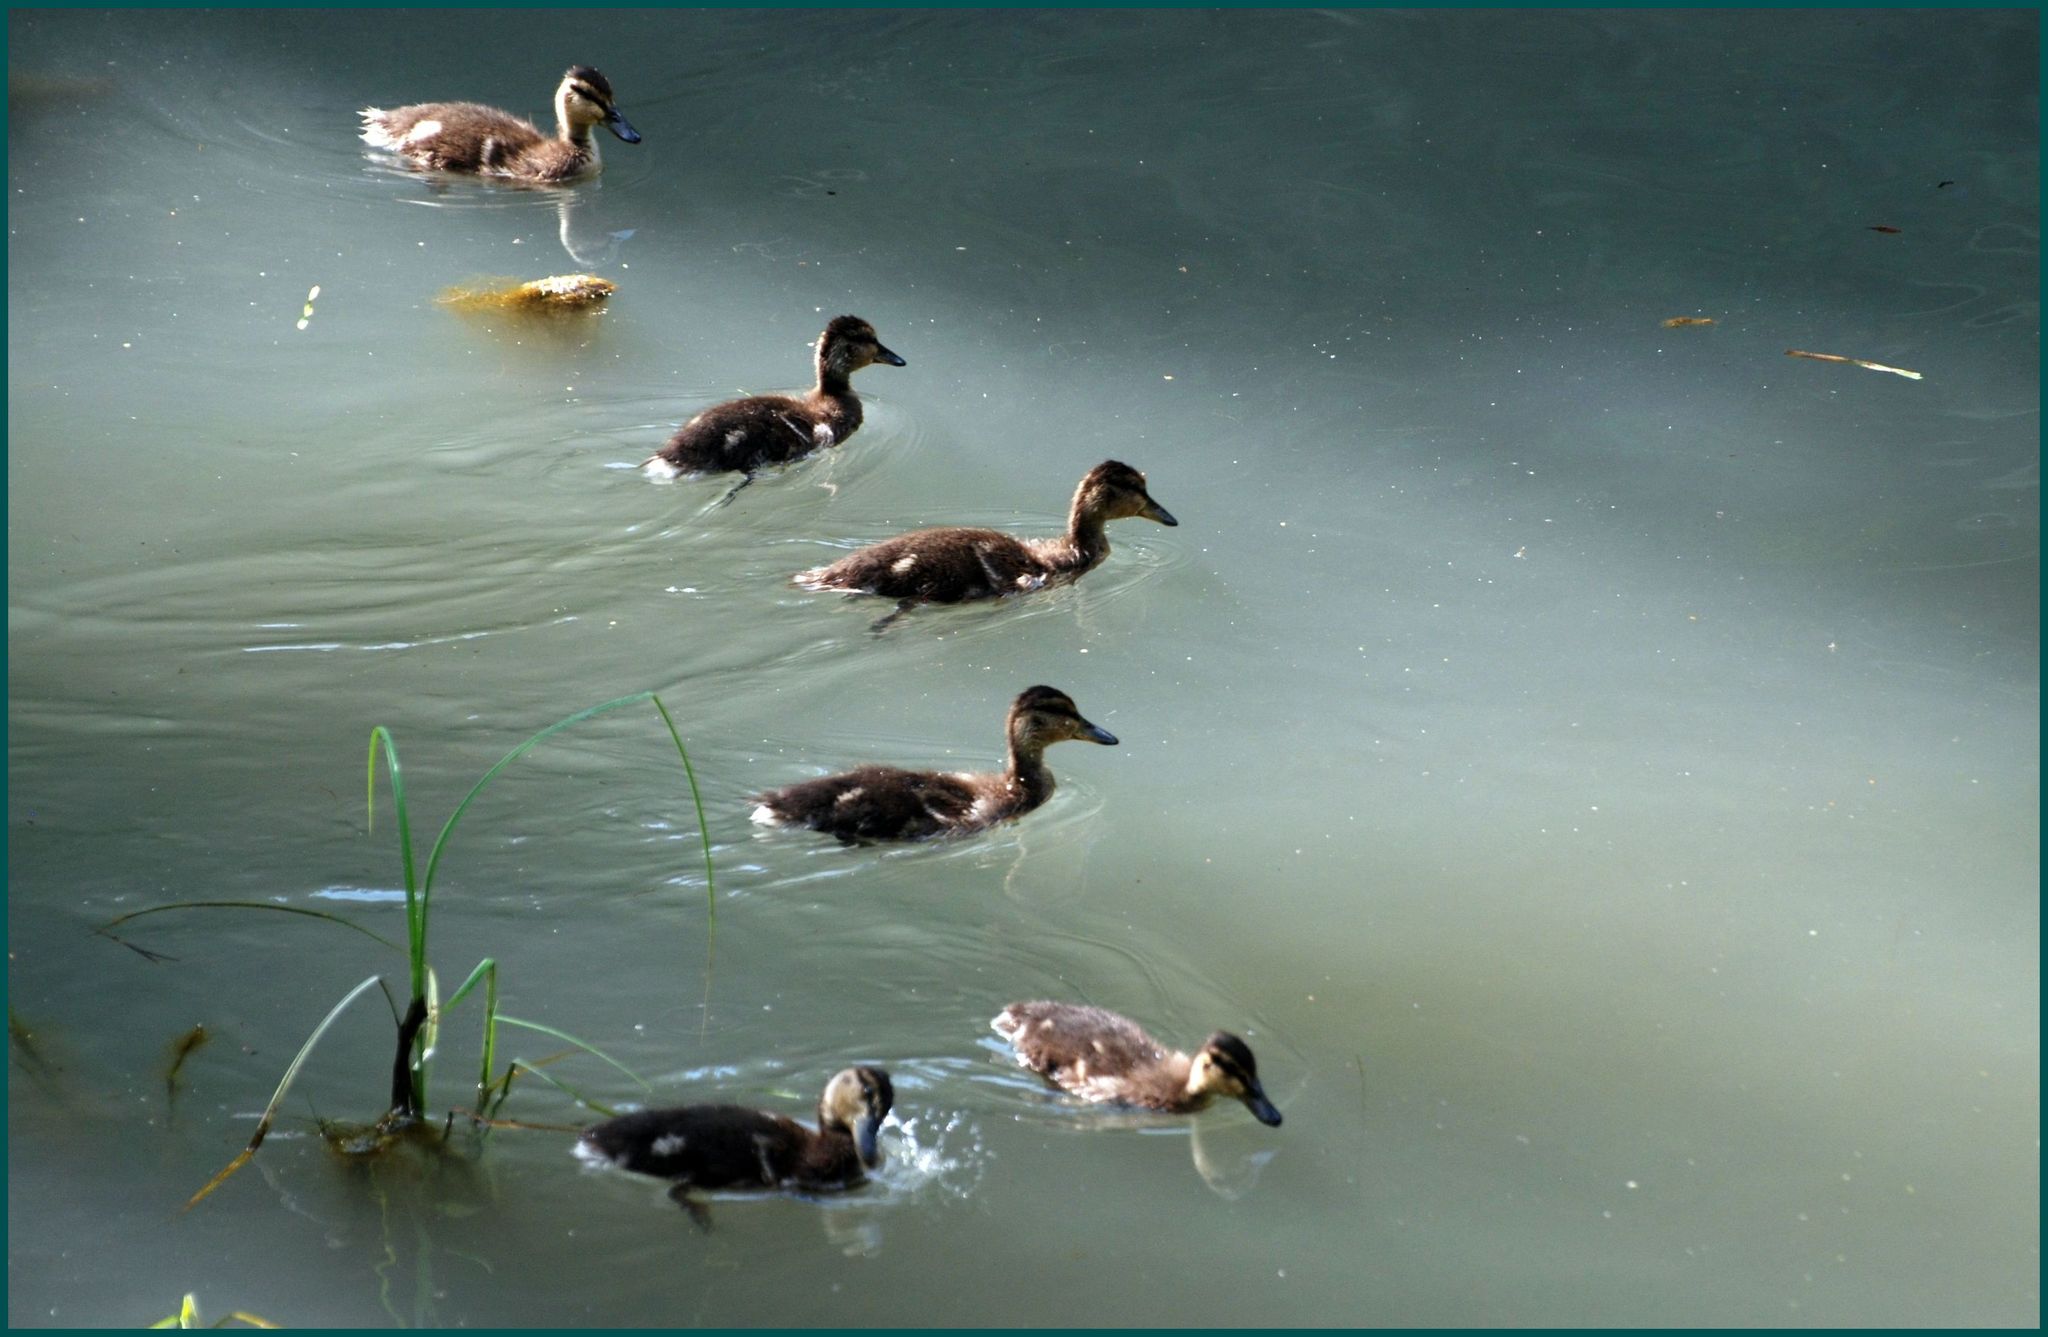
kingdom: Animalia
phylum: Chordata
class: Aves
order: Anseriformes
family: Anatidae
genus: Anas
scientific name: Anas platyrhynchos
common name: Mallard
